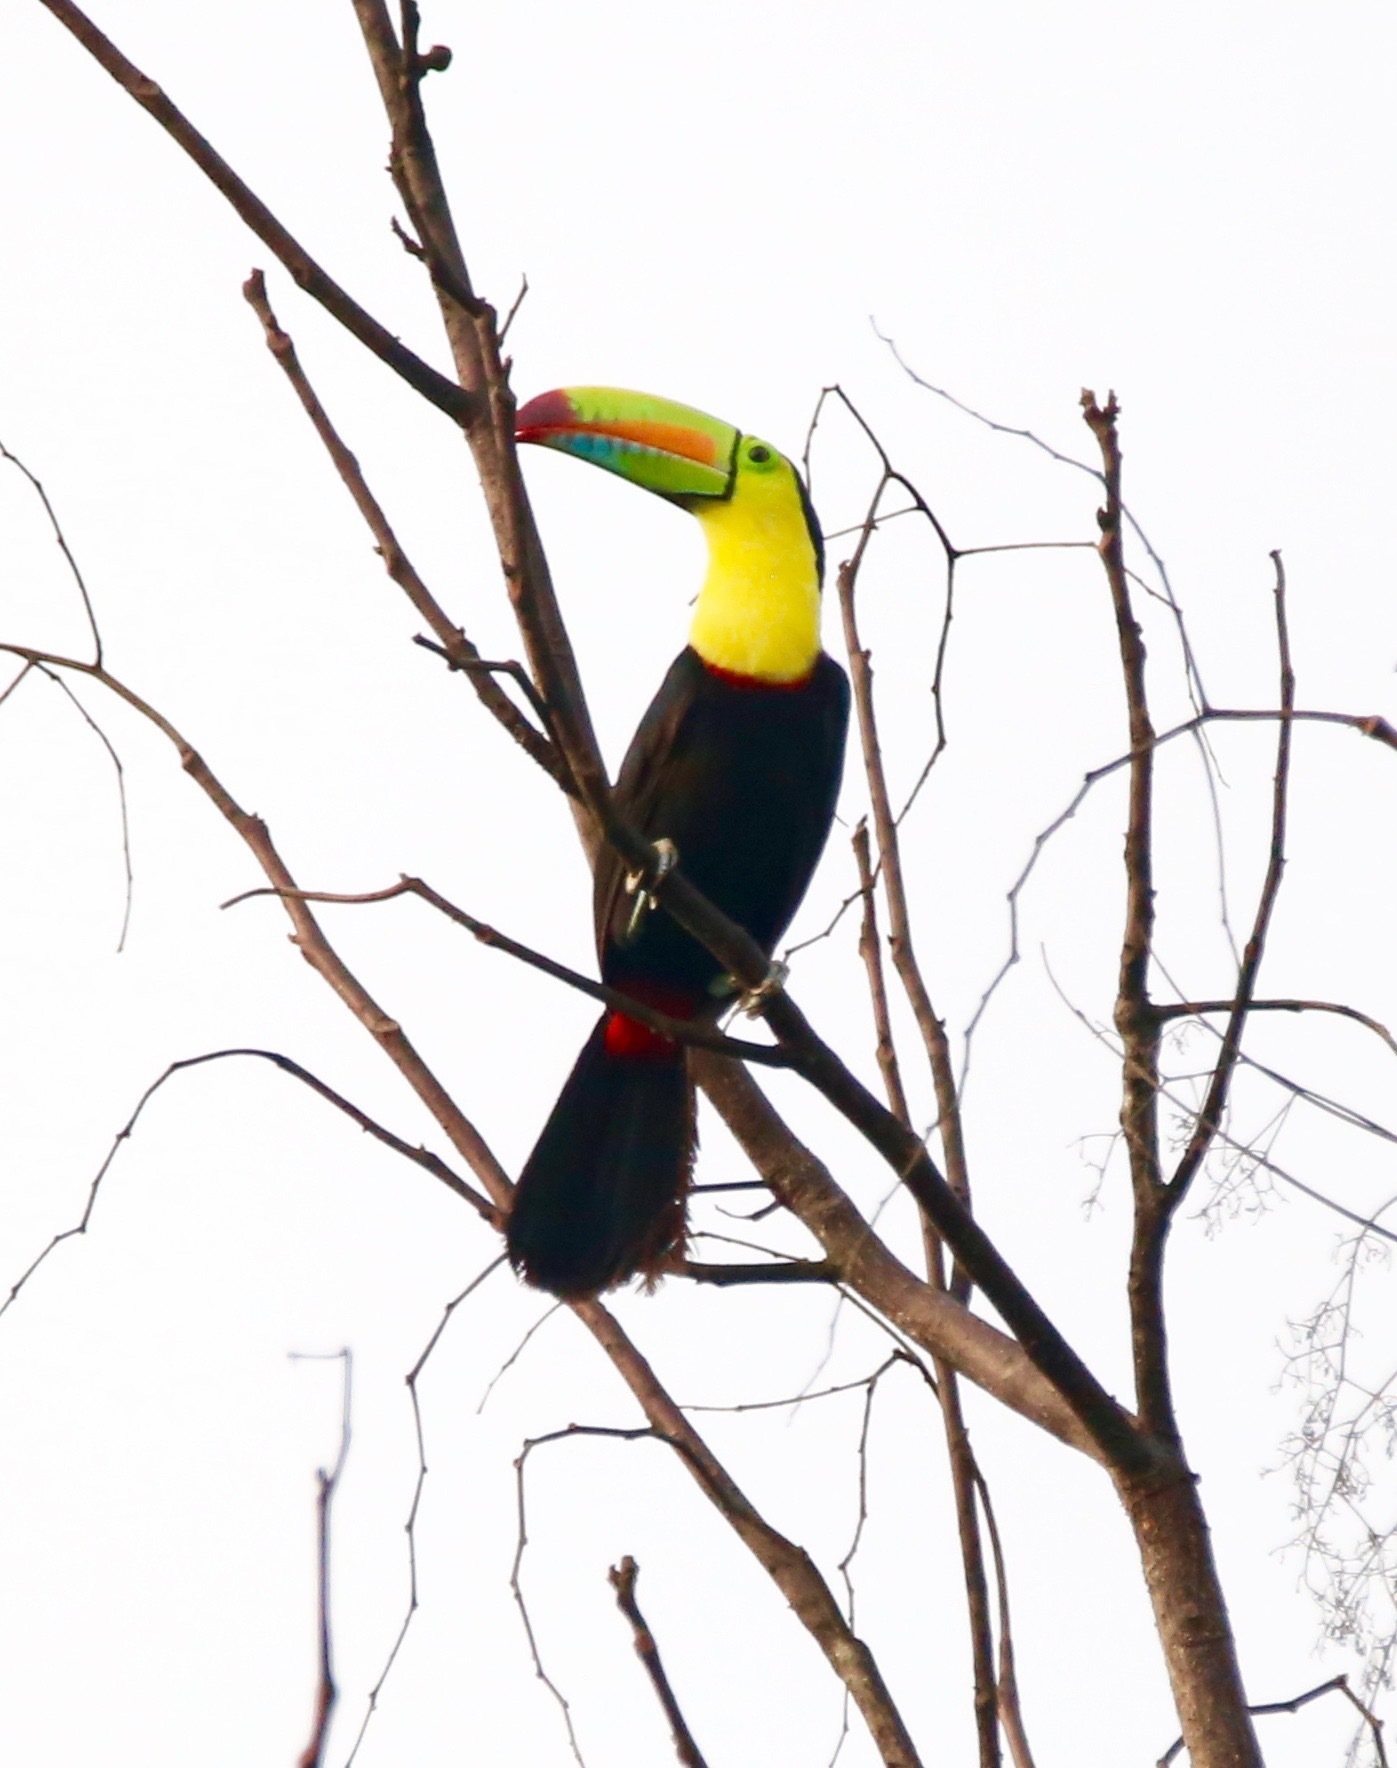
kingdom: Animalia
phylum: Chordata
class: Aves
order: Piciformes
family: Ramphastidae
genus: Ramphastos
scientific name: Ramphastos sulfuratus
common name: Keel-billed toucan
